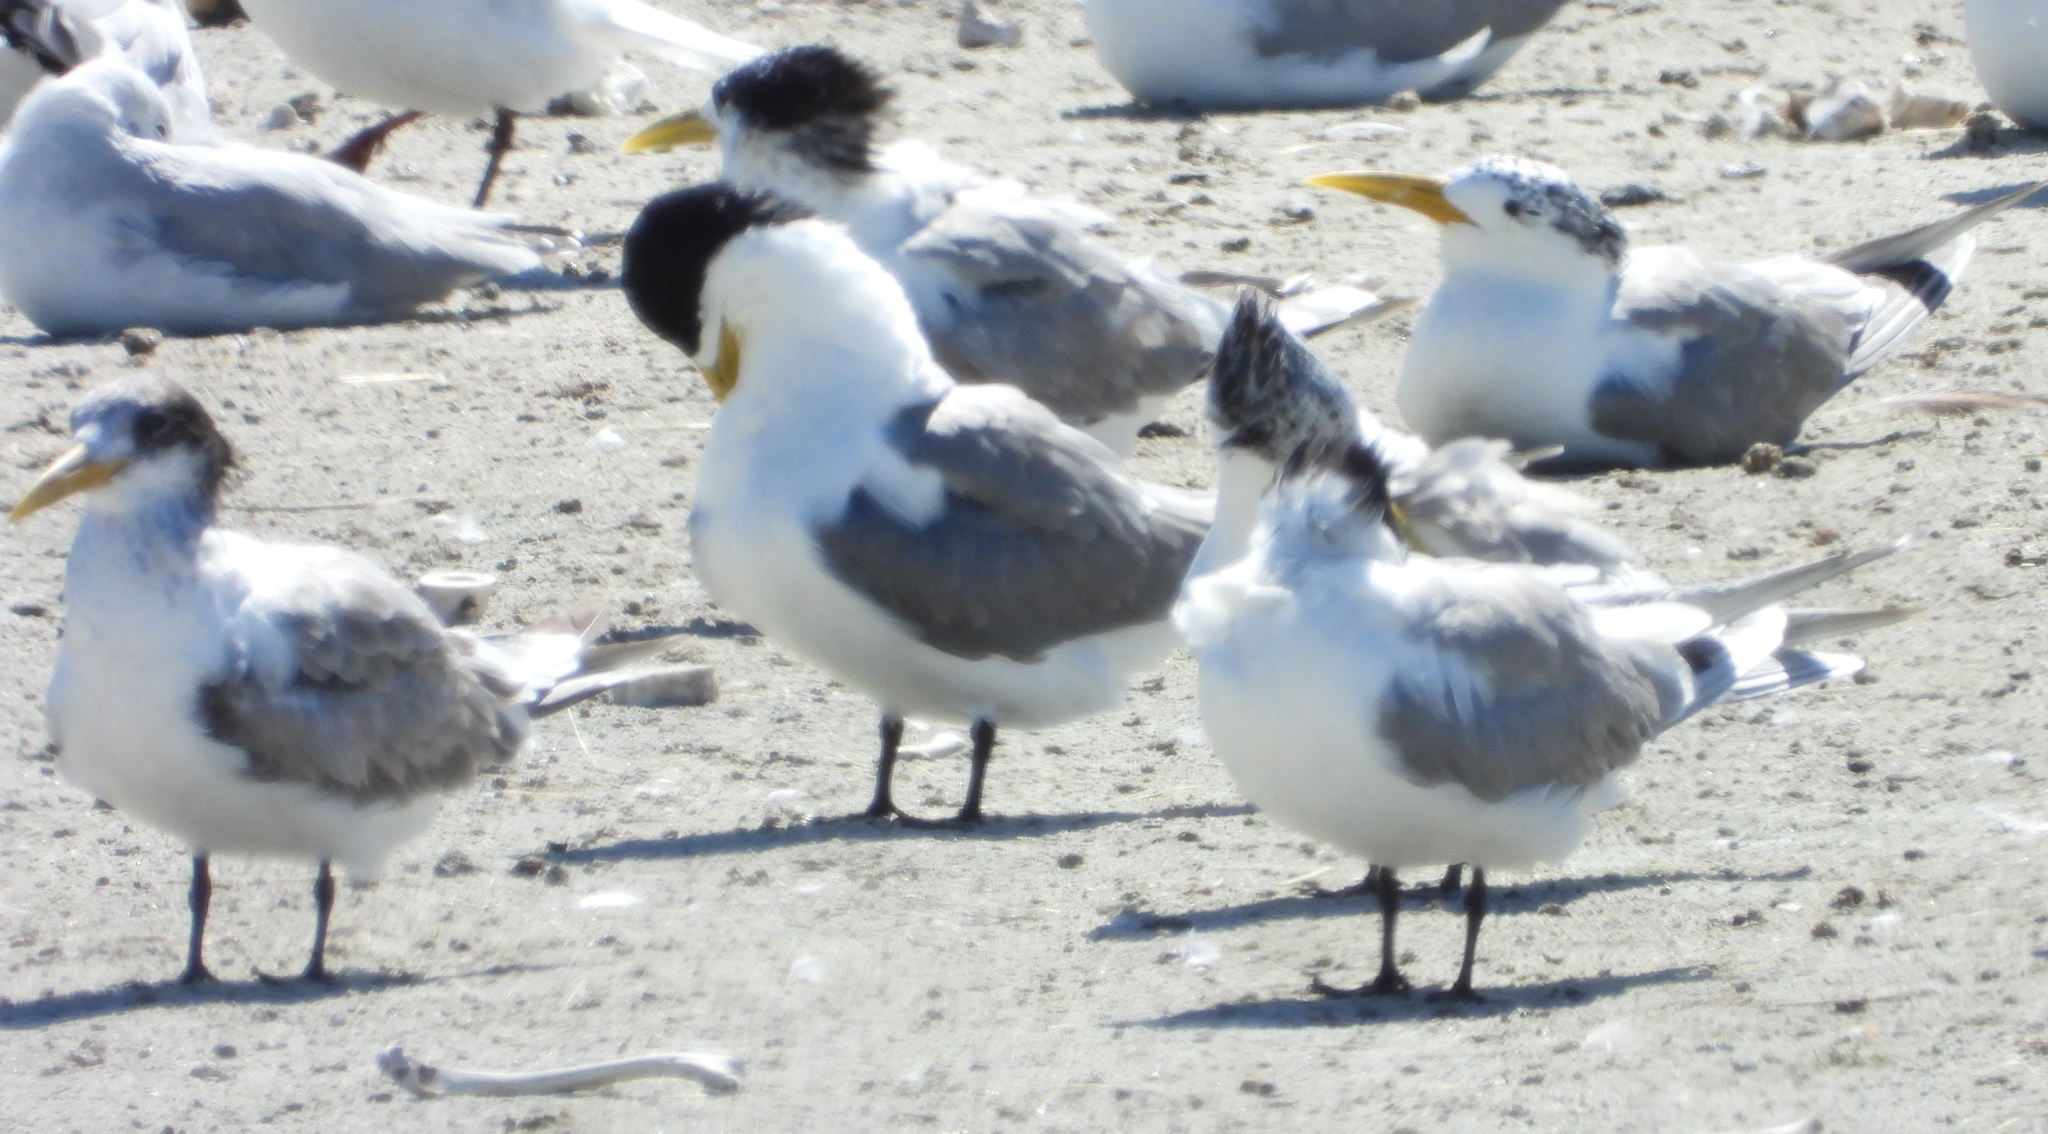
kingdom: Animalia
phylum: Chordata
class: Aves
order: Charadriiformes
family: Laridae
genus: Thalasseus
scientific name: Thalasseus bergii
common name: Greater crested tern
